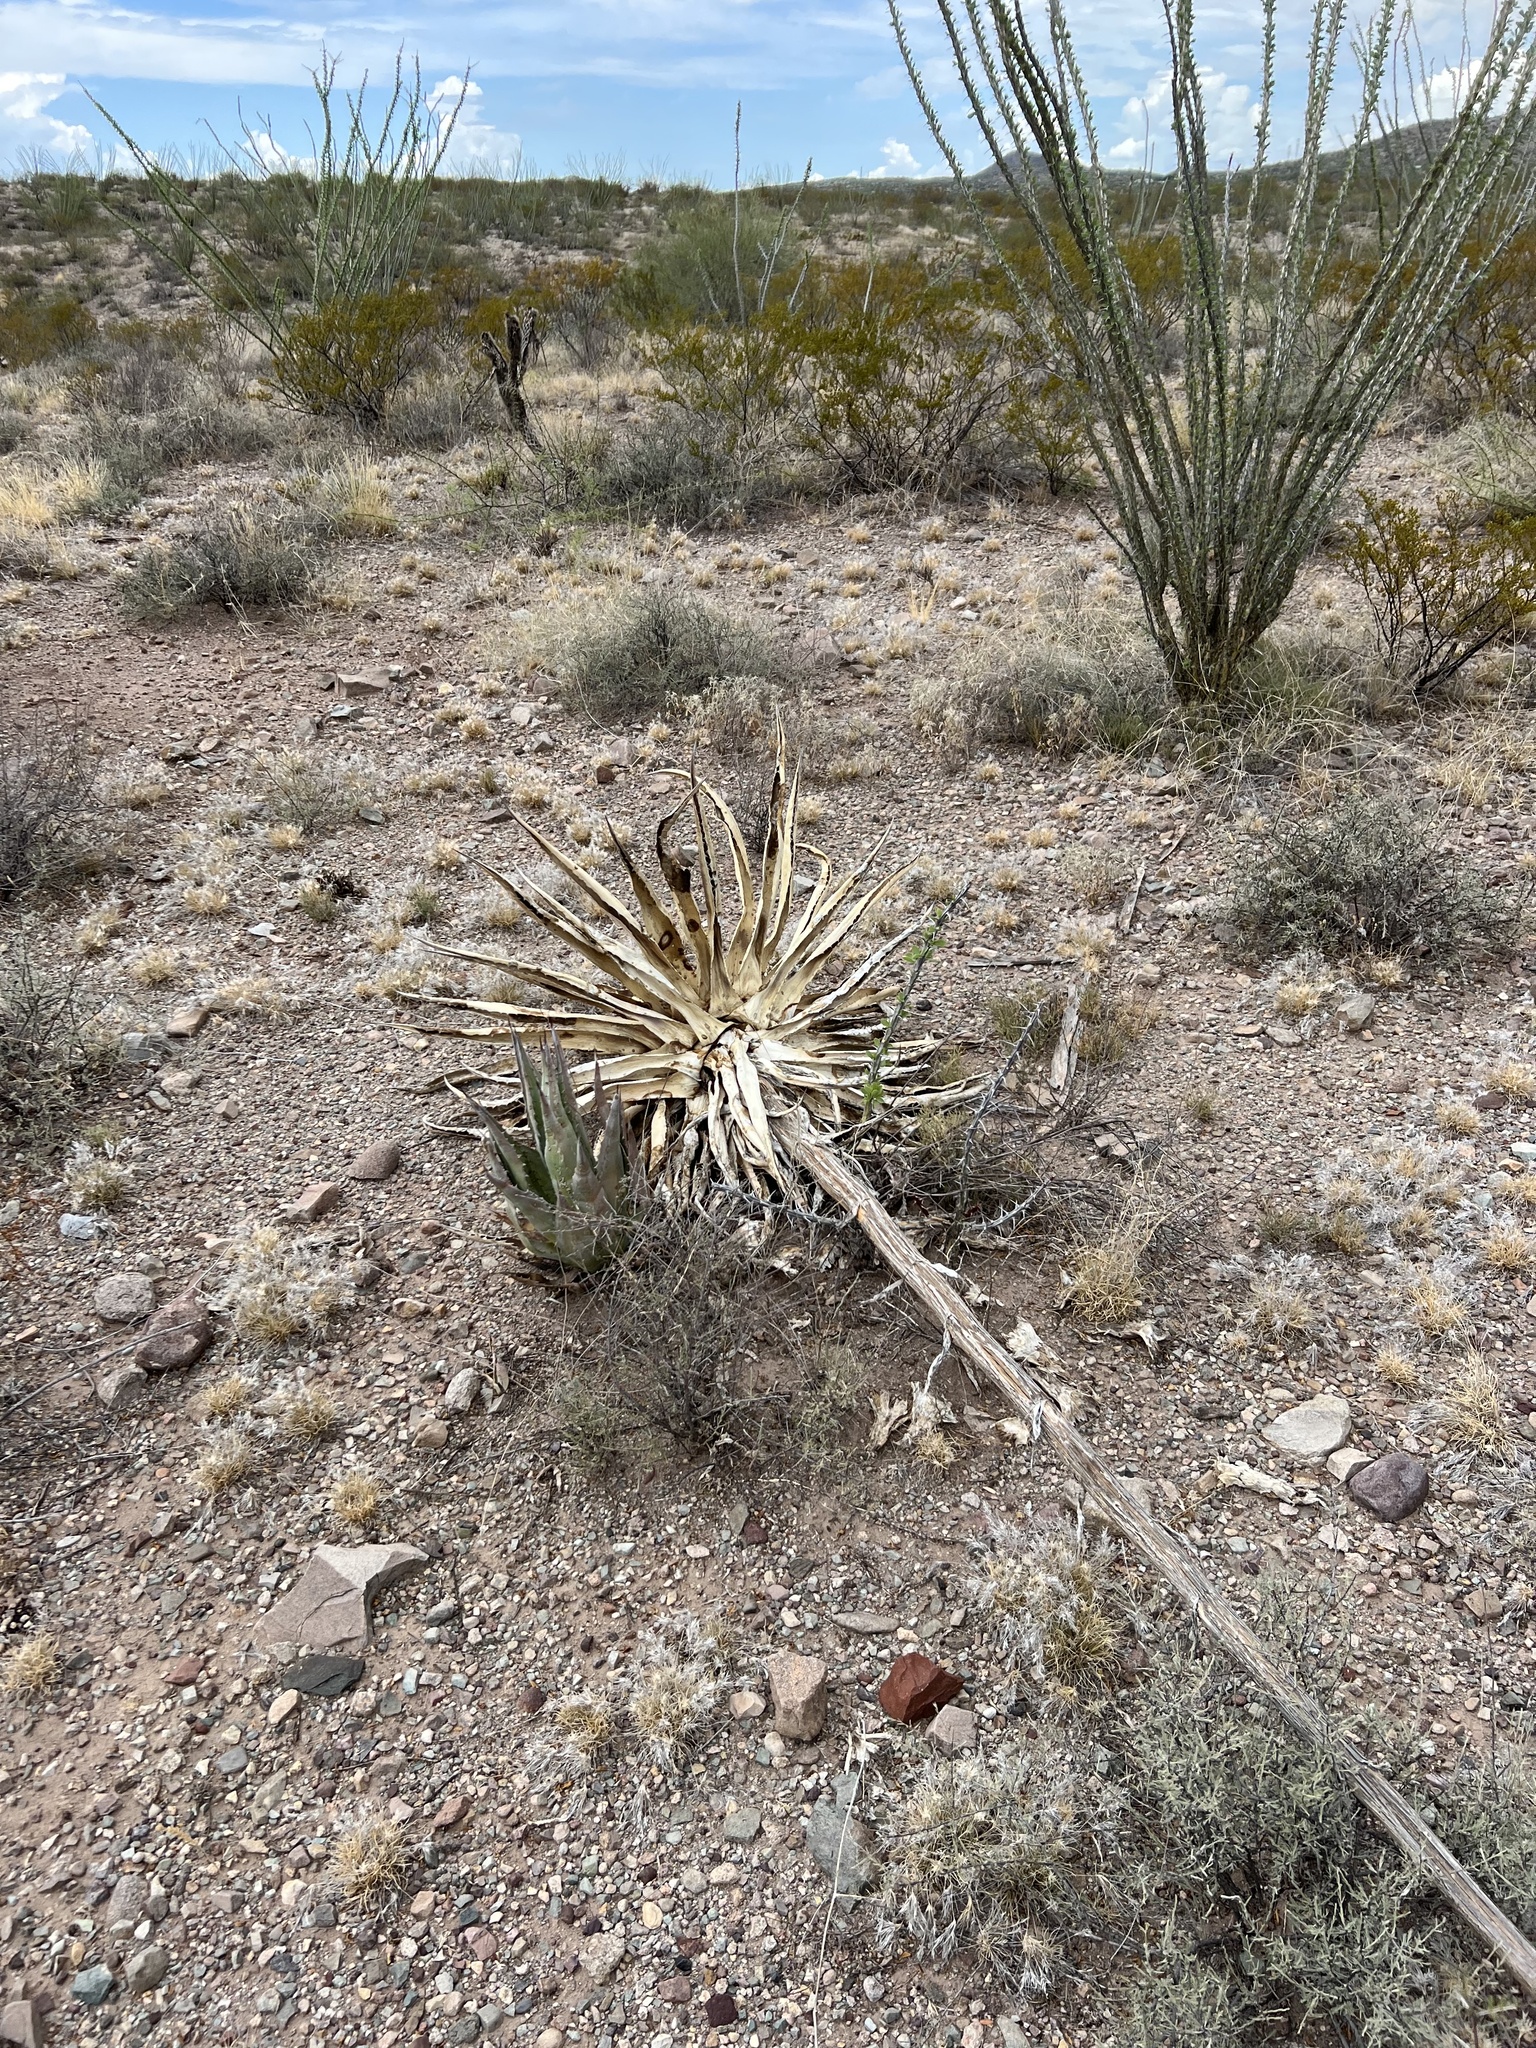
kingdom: Plantae
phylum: Tracheophyta
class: Liliopsida
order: Asparagales
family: Asparagaceae
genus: Agave
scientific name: Agave palmeri
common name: Palmer agave
